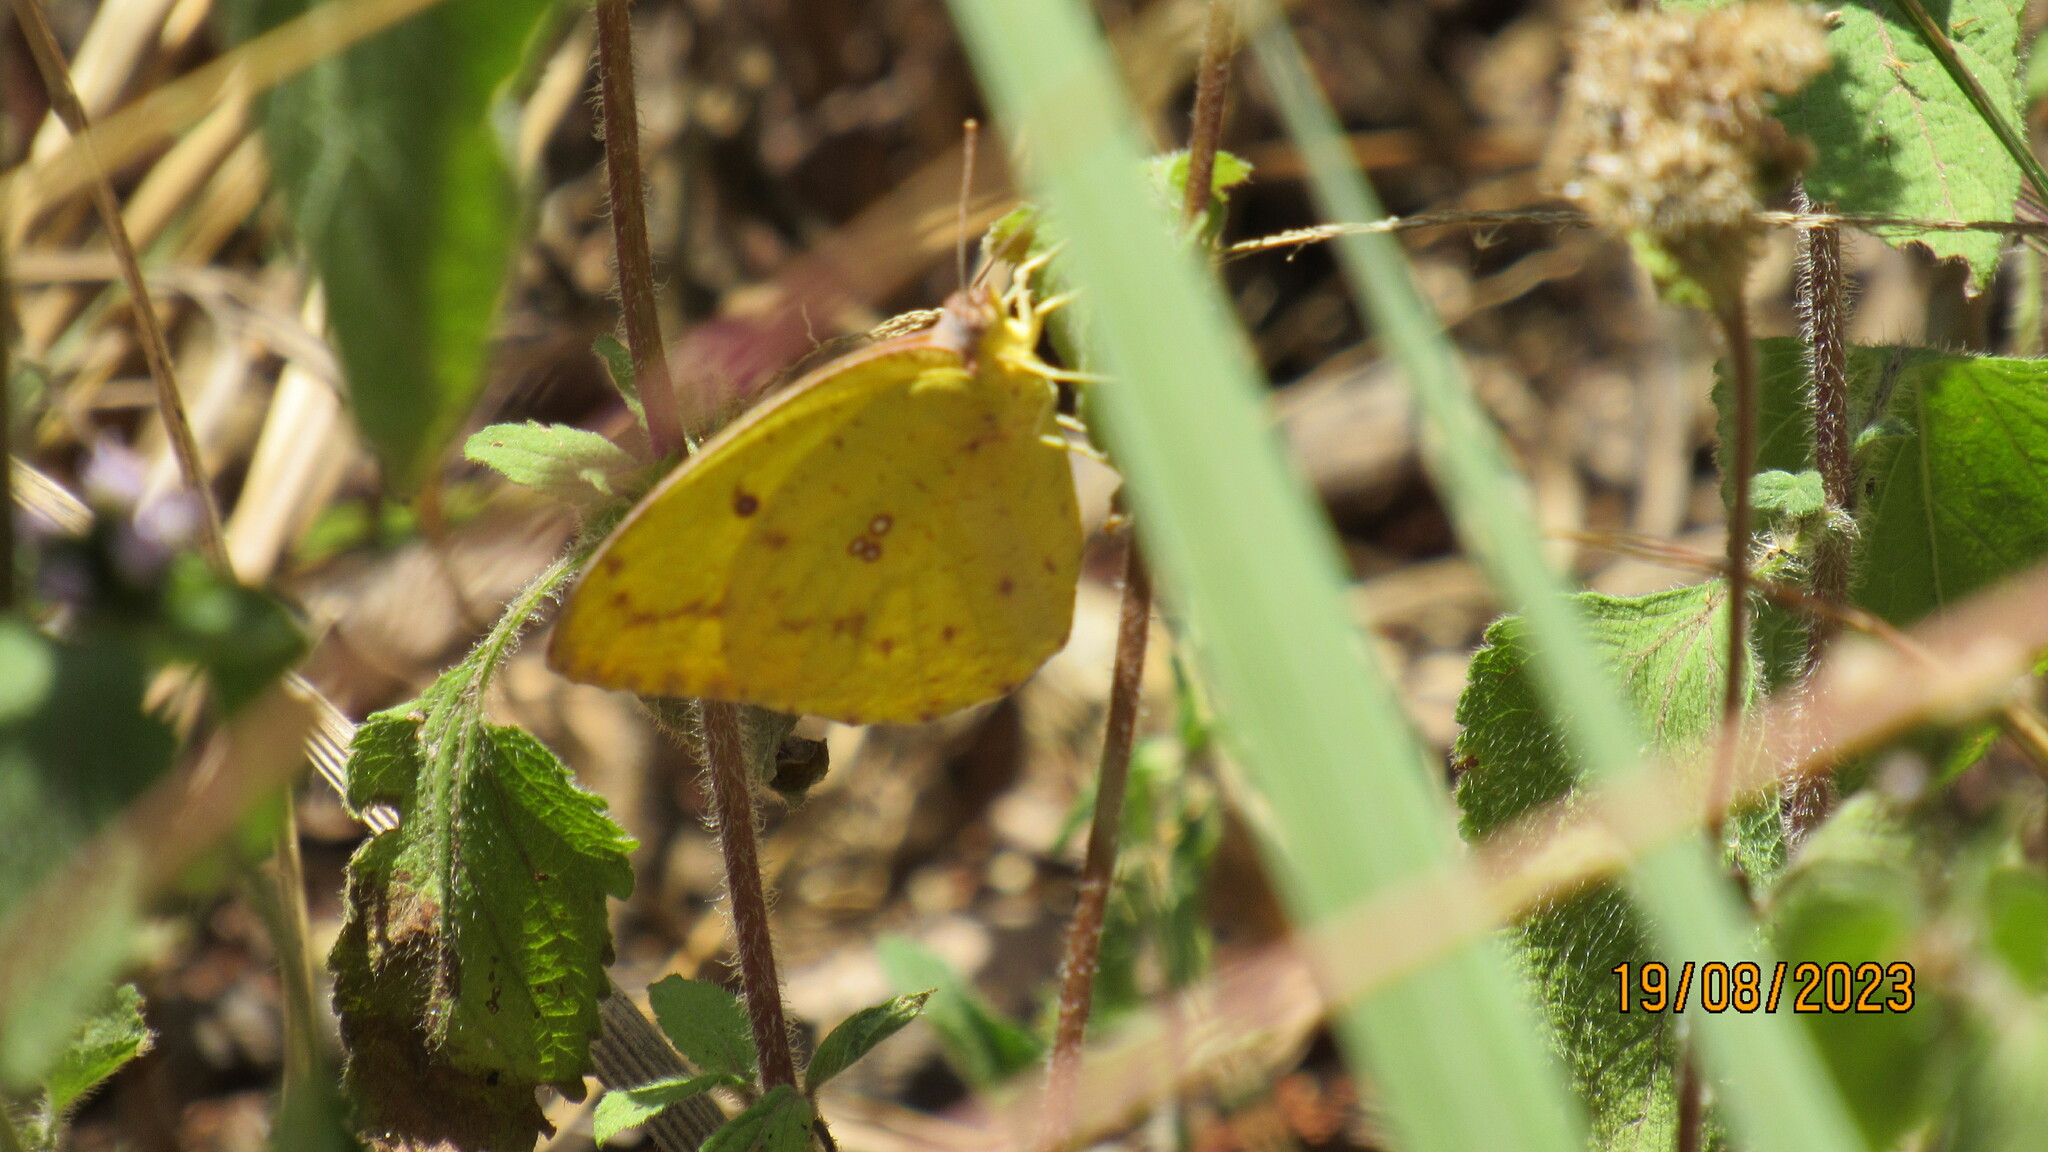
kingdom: Animalia
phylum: Arthropoda
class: Insecta
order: Lepidoptera
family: Pieridae
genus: Catopsilia
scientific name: Catopsilia florella
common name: African migrant
